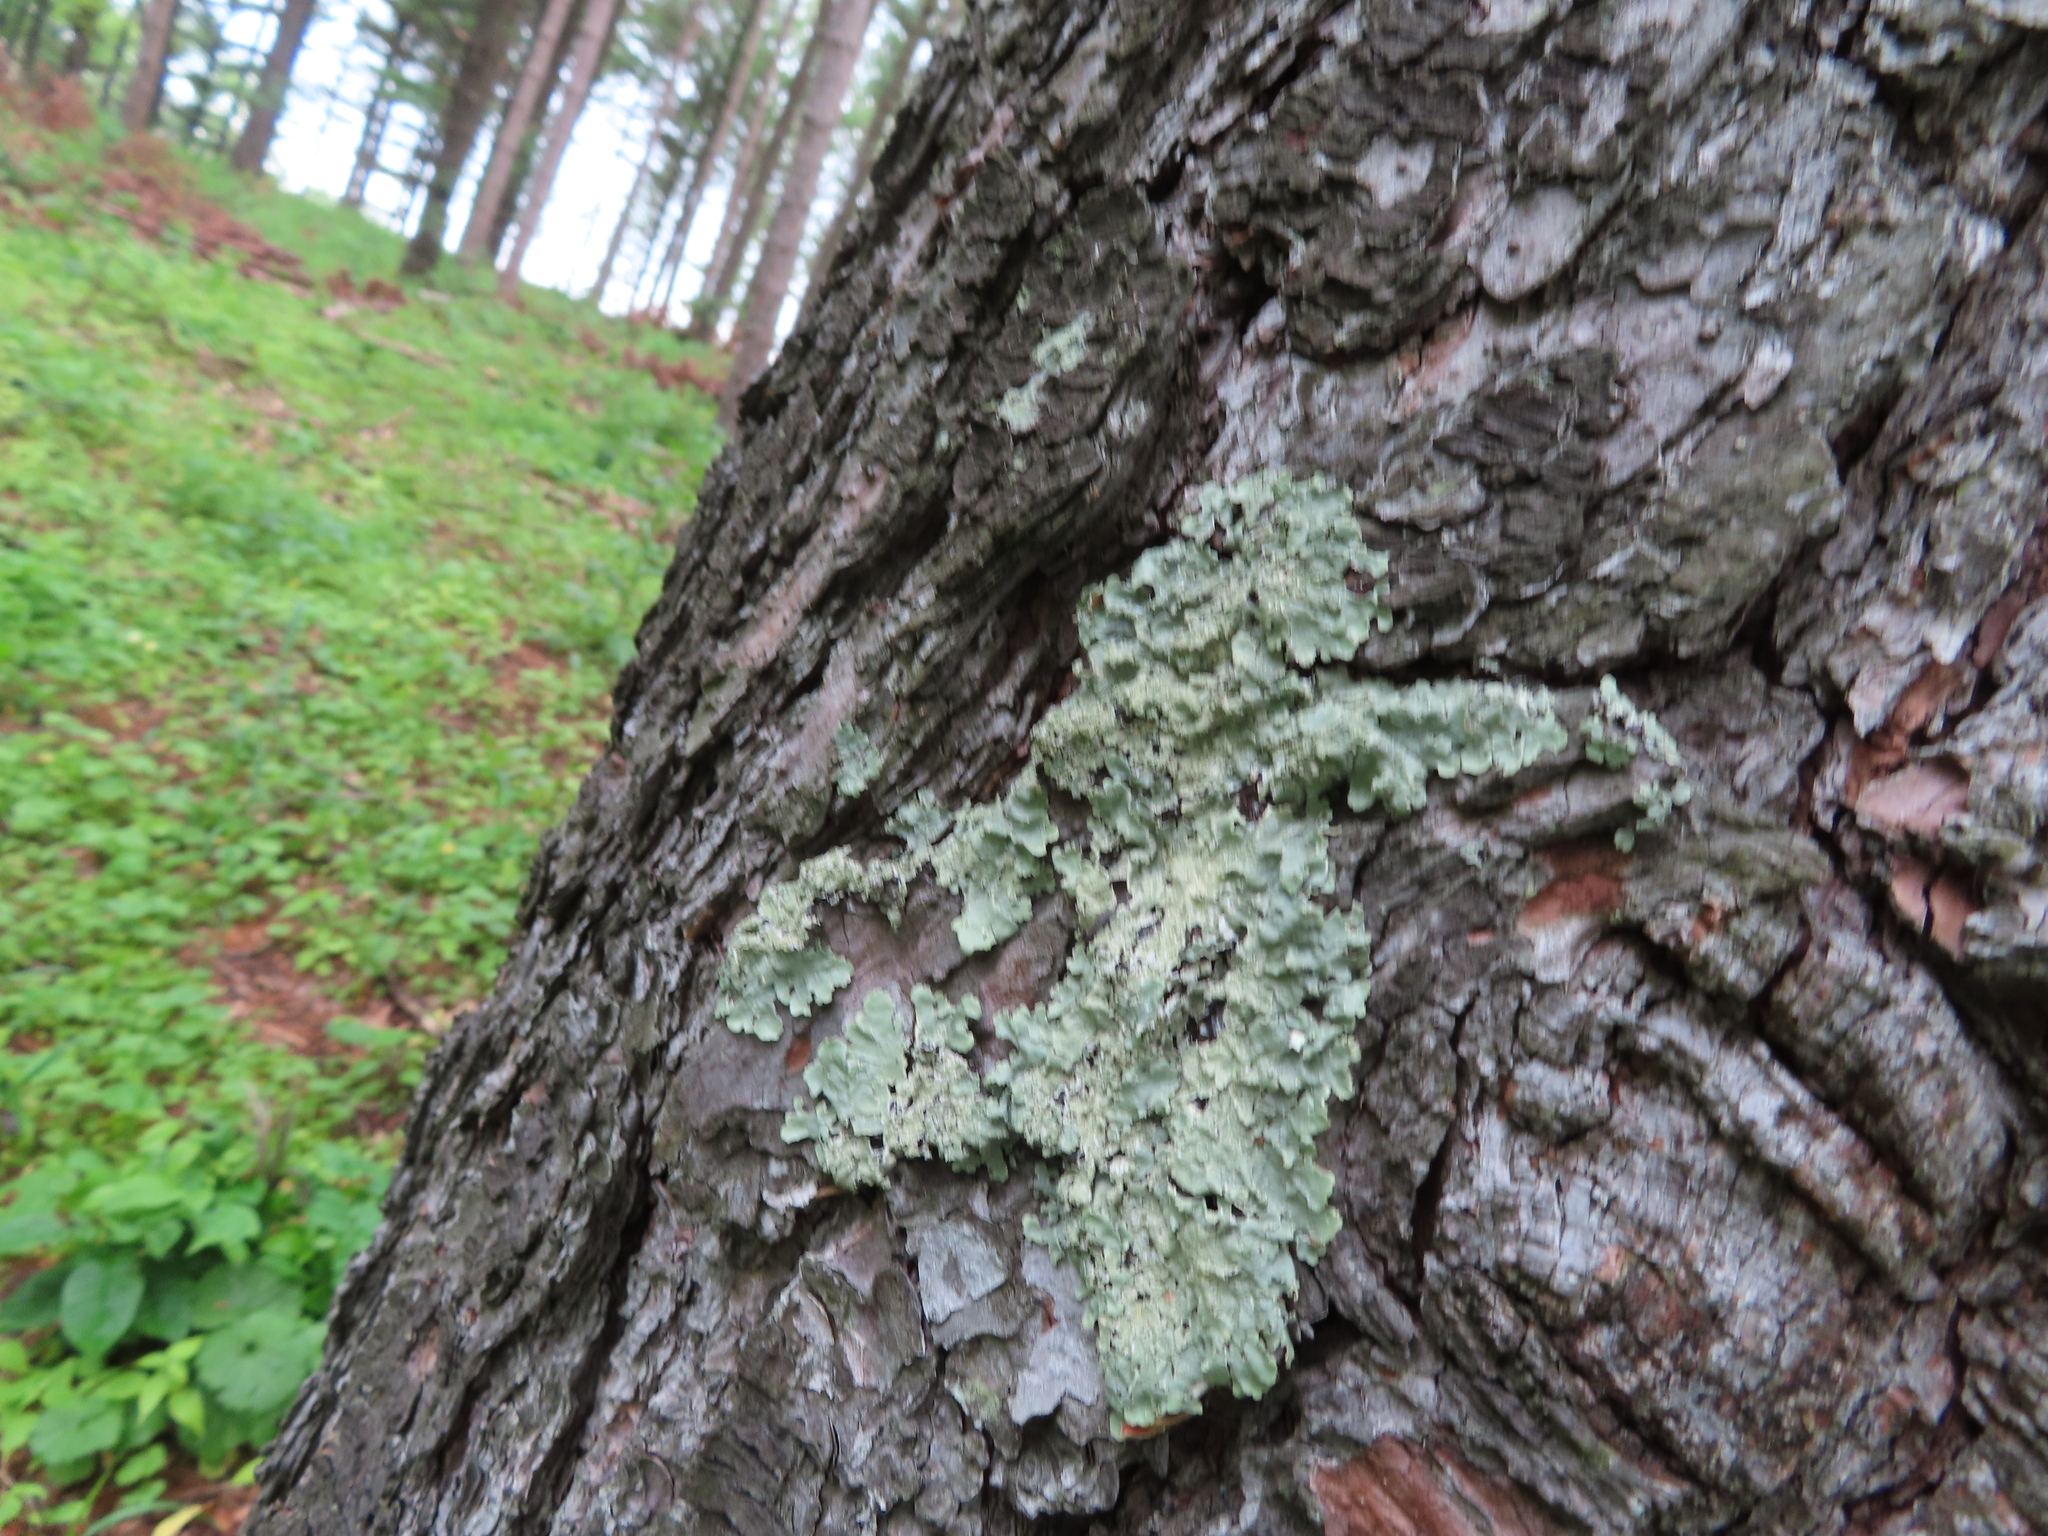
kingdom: Fungi
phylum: Ascomycota
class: Lecanoromycetes
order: Lecanorales
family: Parmeliaceae
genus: Flavoparmelia
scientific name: Flavoparmelia caperata
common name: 40-mile per hour lichen
